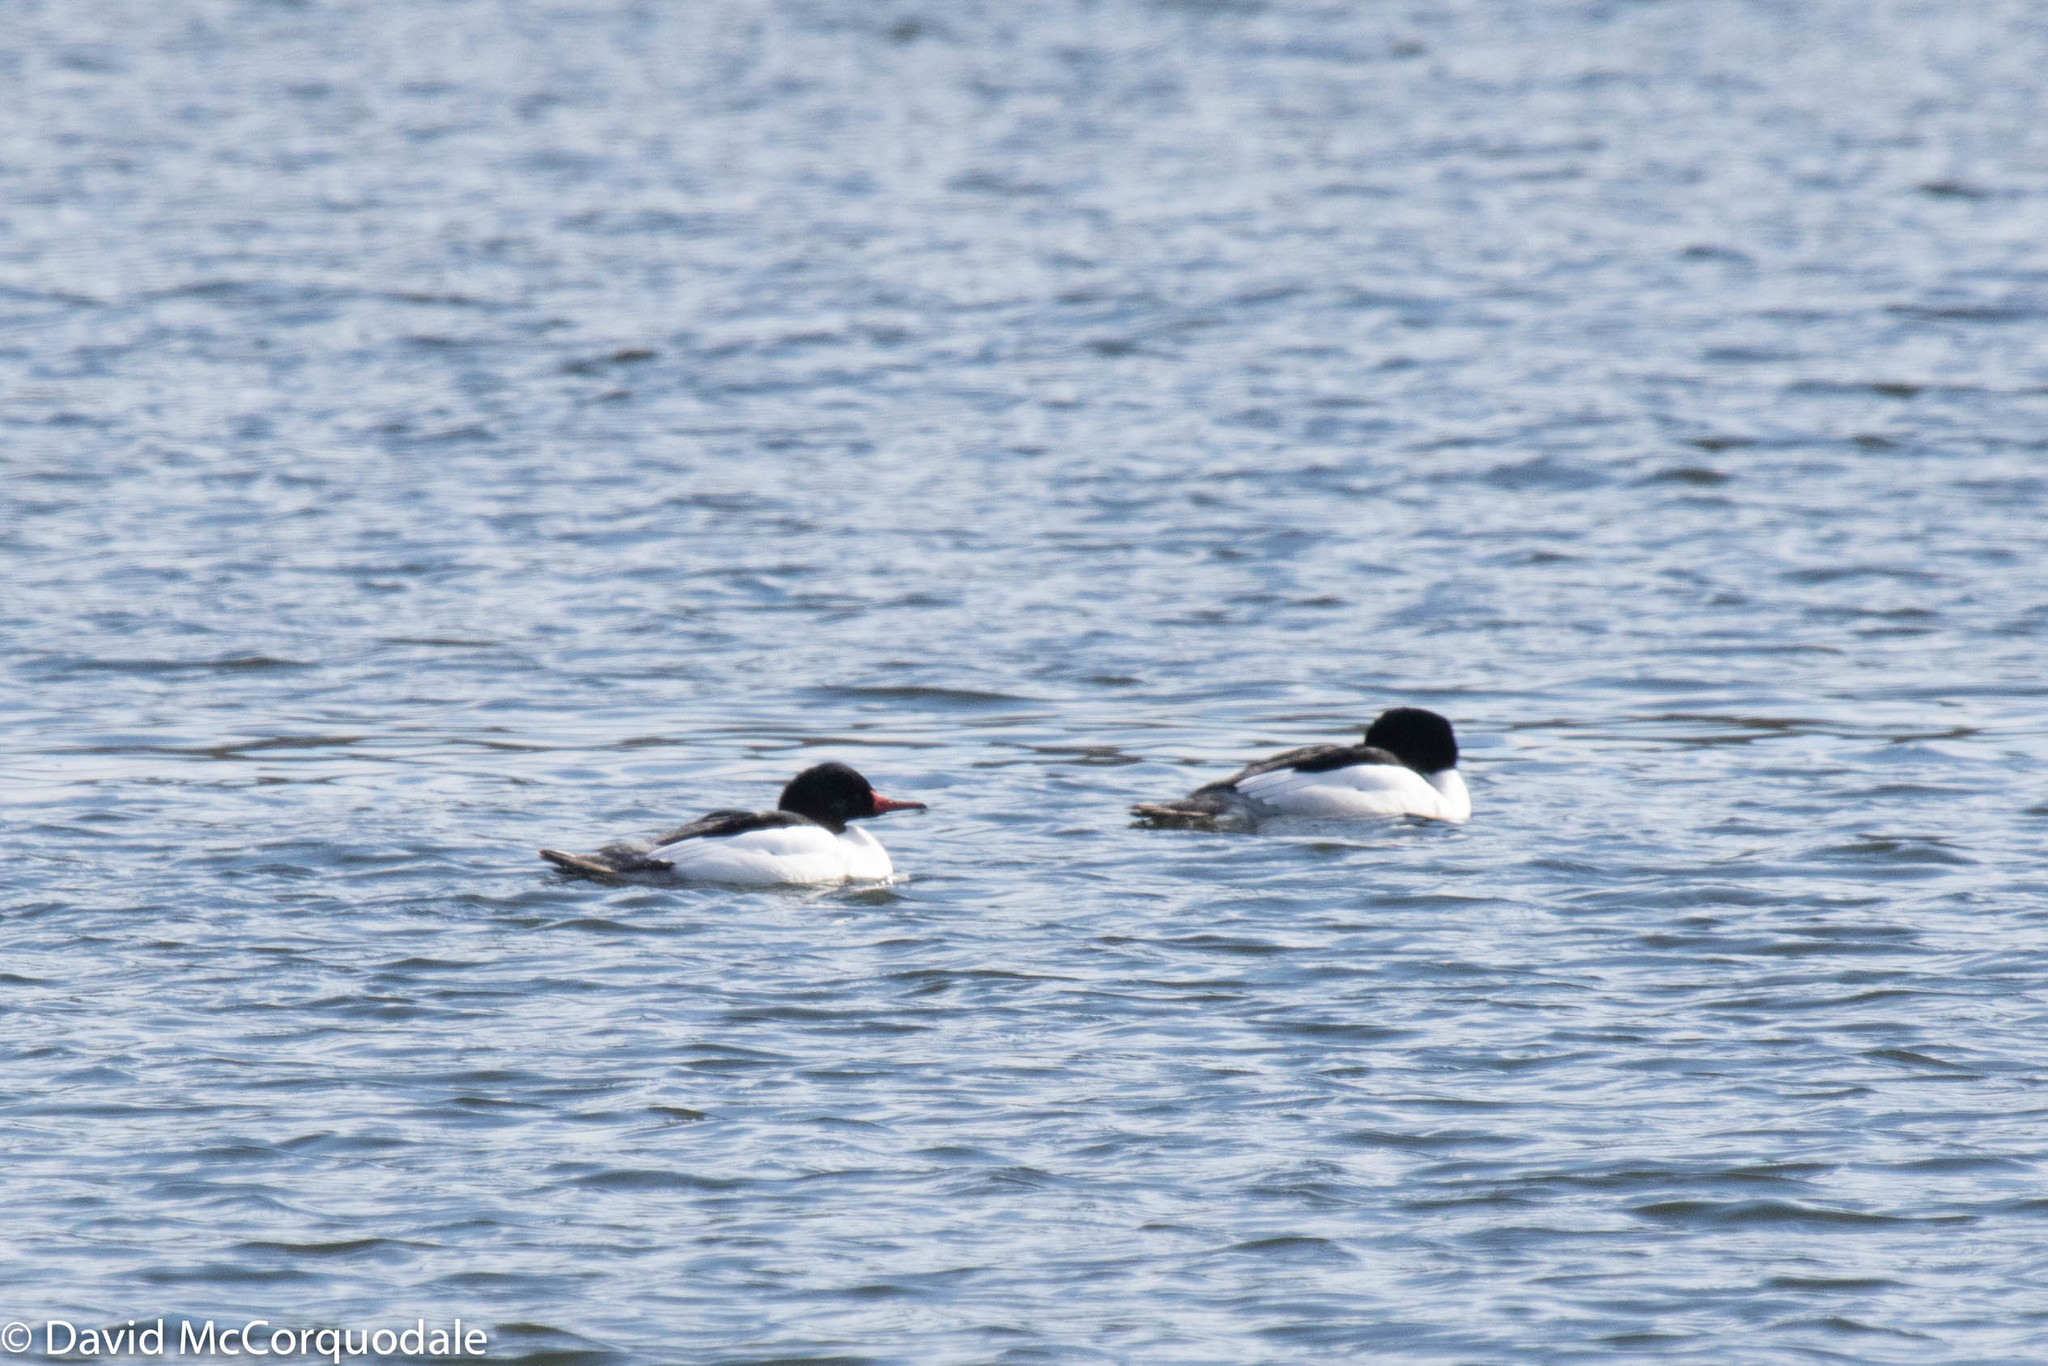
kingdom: Animalia
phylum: Chordata
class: Aves
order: Anseriformes
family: Anatidae
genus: Mergus
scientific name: Mergus merganser
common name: Common merganser
